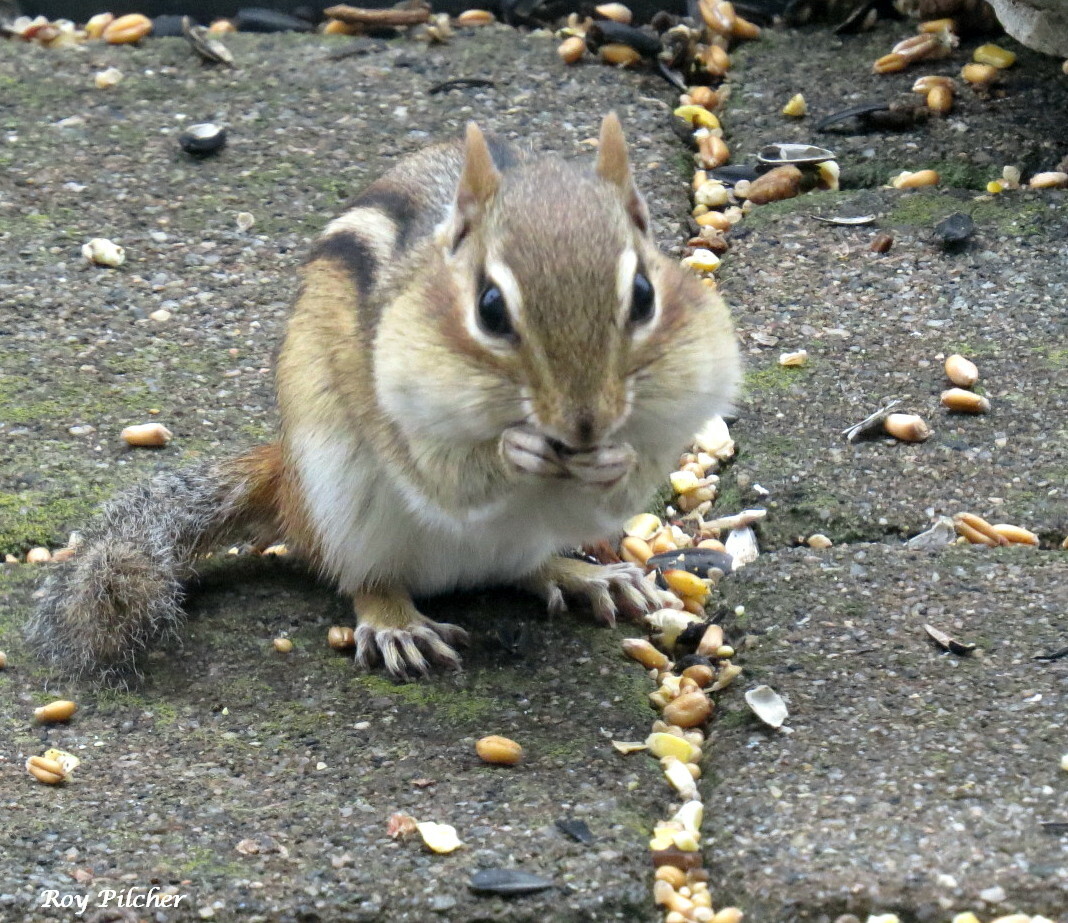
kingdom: Animalia
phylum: Chordata
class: Mammalia
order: Rodentia
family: Sciuridae
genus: Tamias
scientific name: Tamias striatus
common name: Eastern chipmunk
